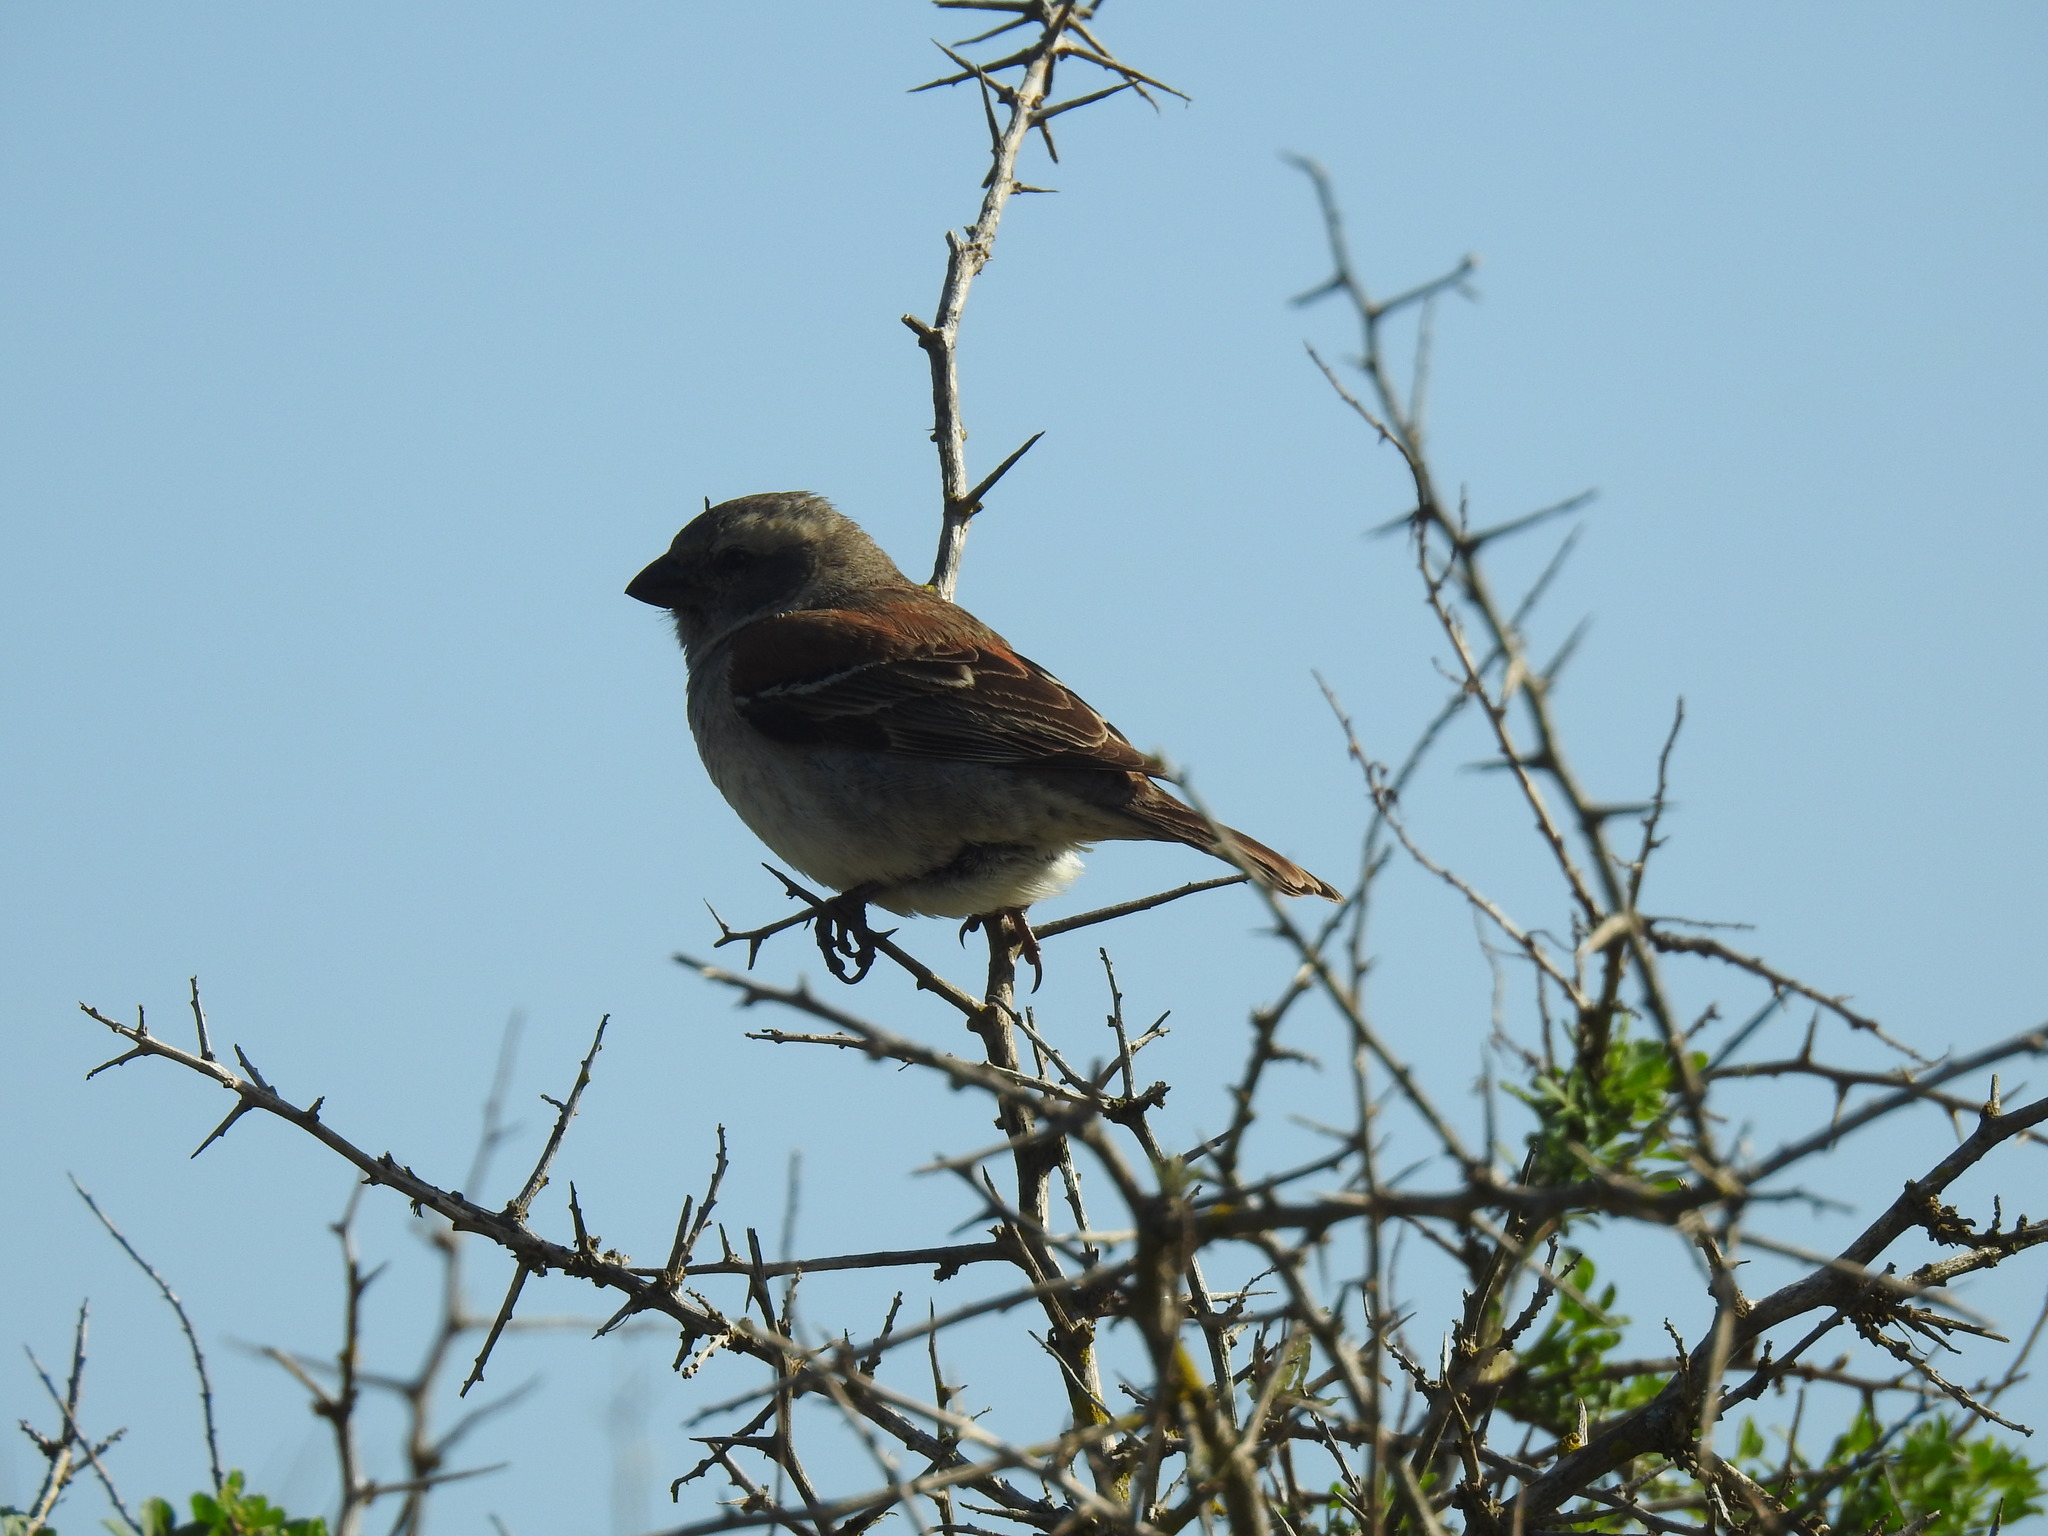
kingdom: Animalia
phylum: Chordata
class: Aves
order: Passeriformes
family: Passeridae
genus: Passer
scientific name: Passer melanurus
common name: Cape sparrow
